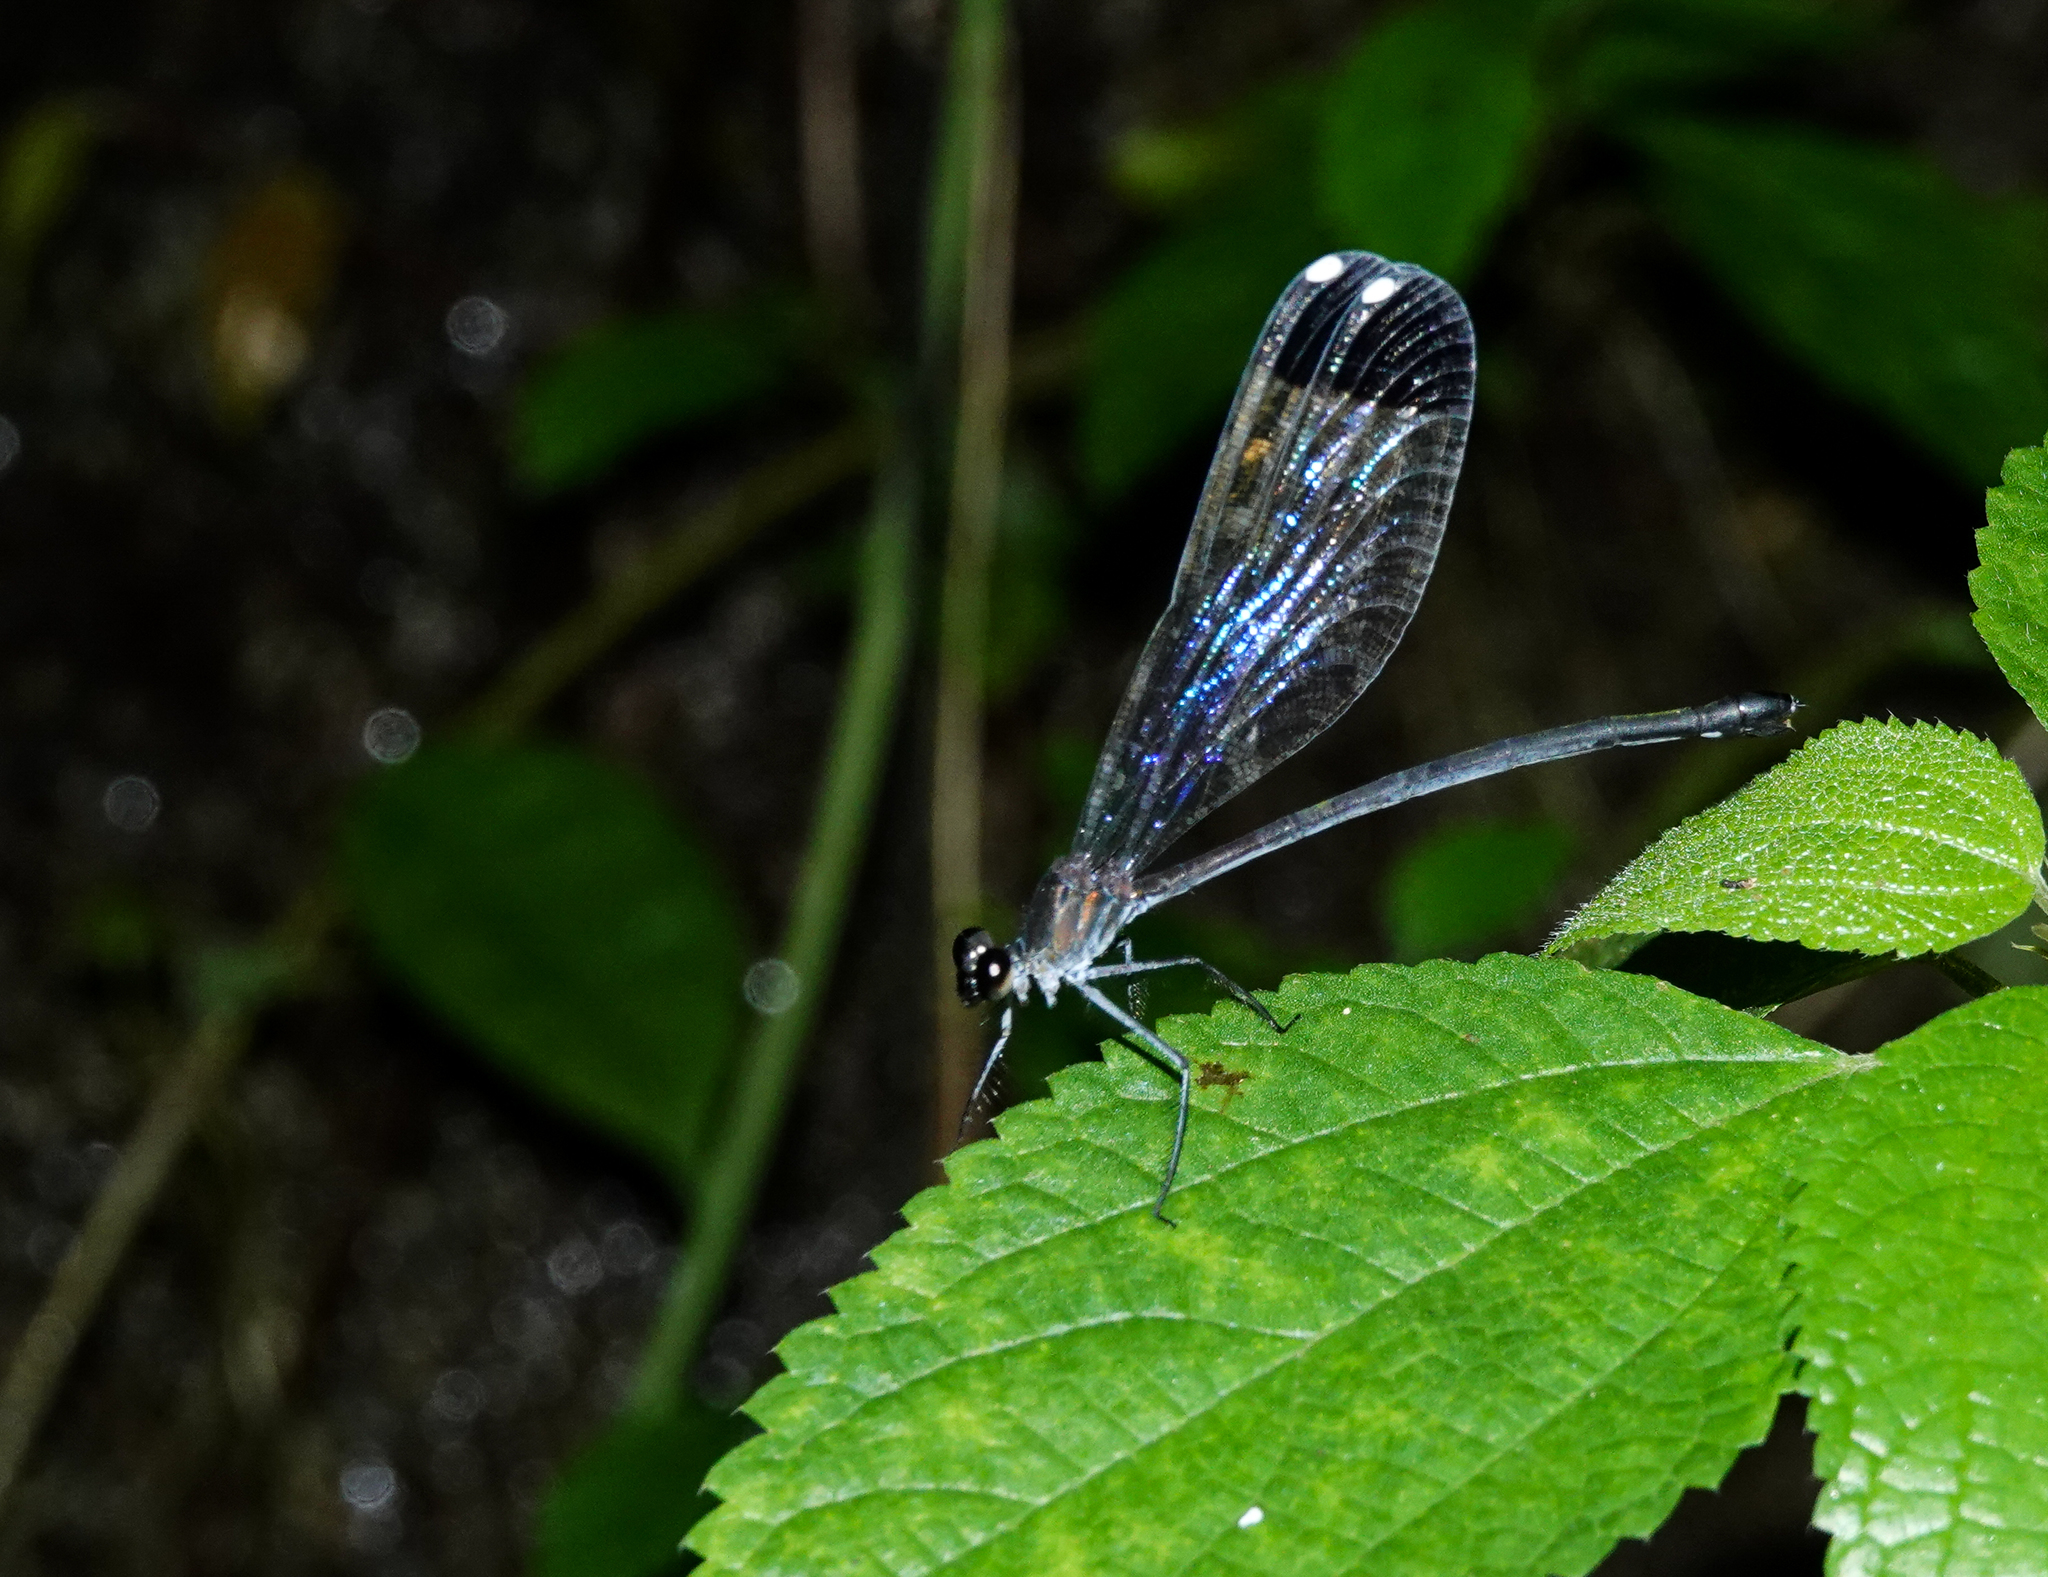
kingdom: Animalia
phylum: Arthropoda
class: Insecta
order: Odonata
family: Calopterygidae
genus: Echo
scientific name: Echo margarita
